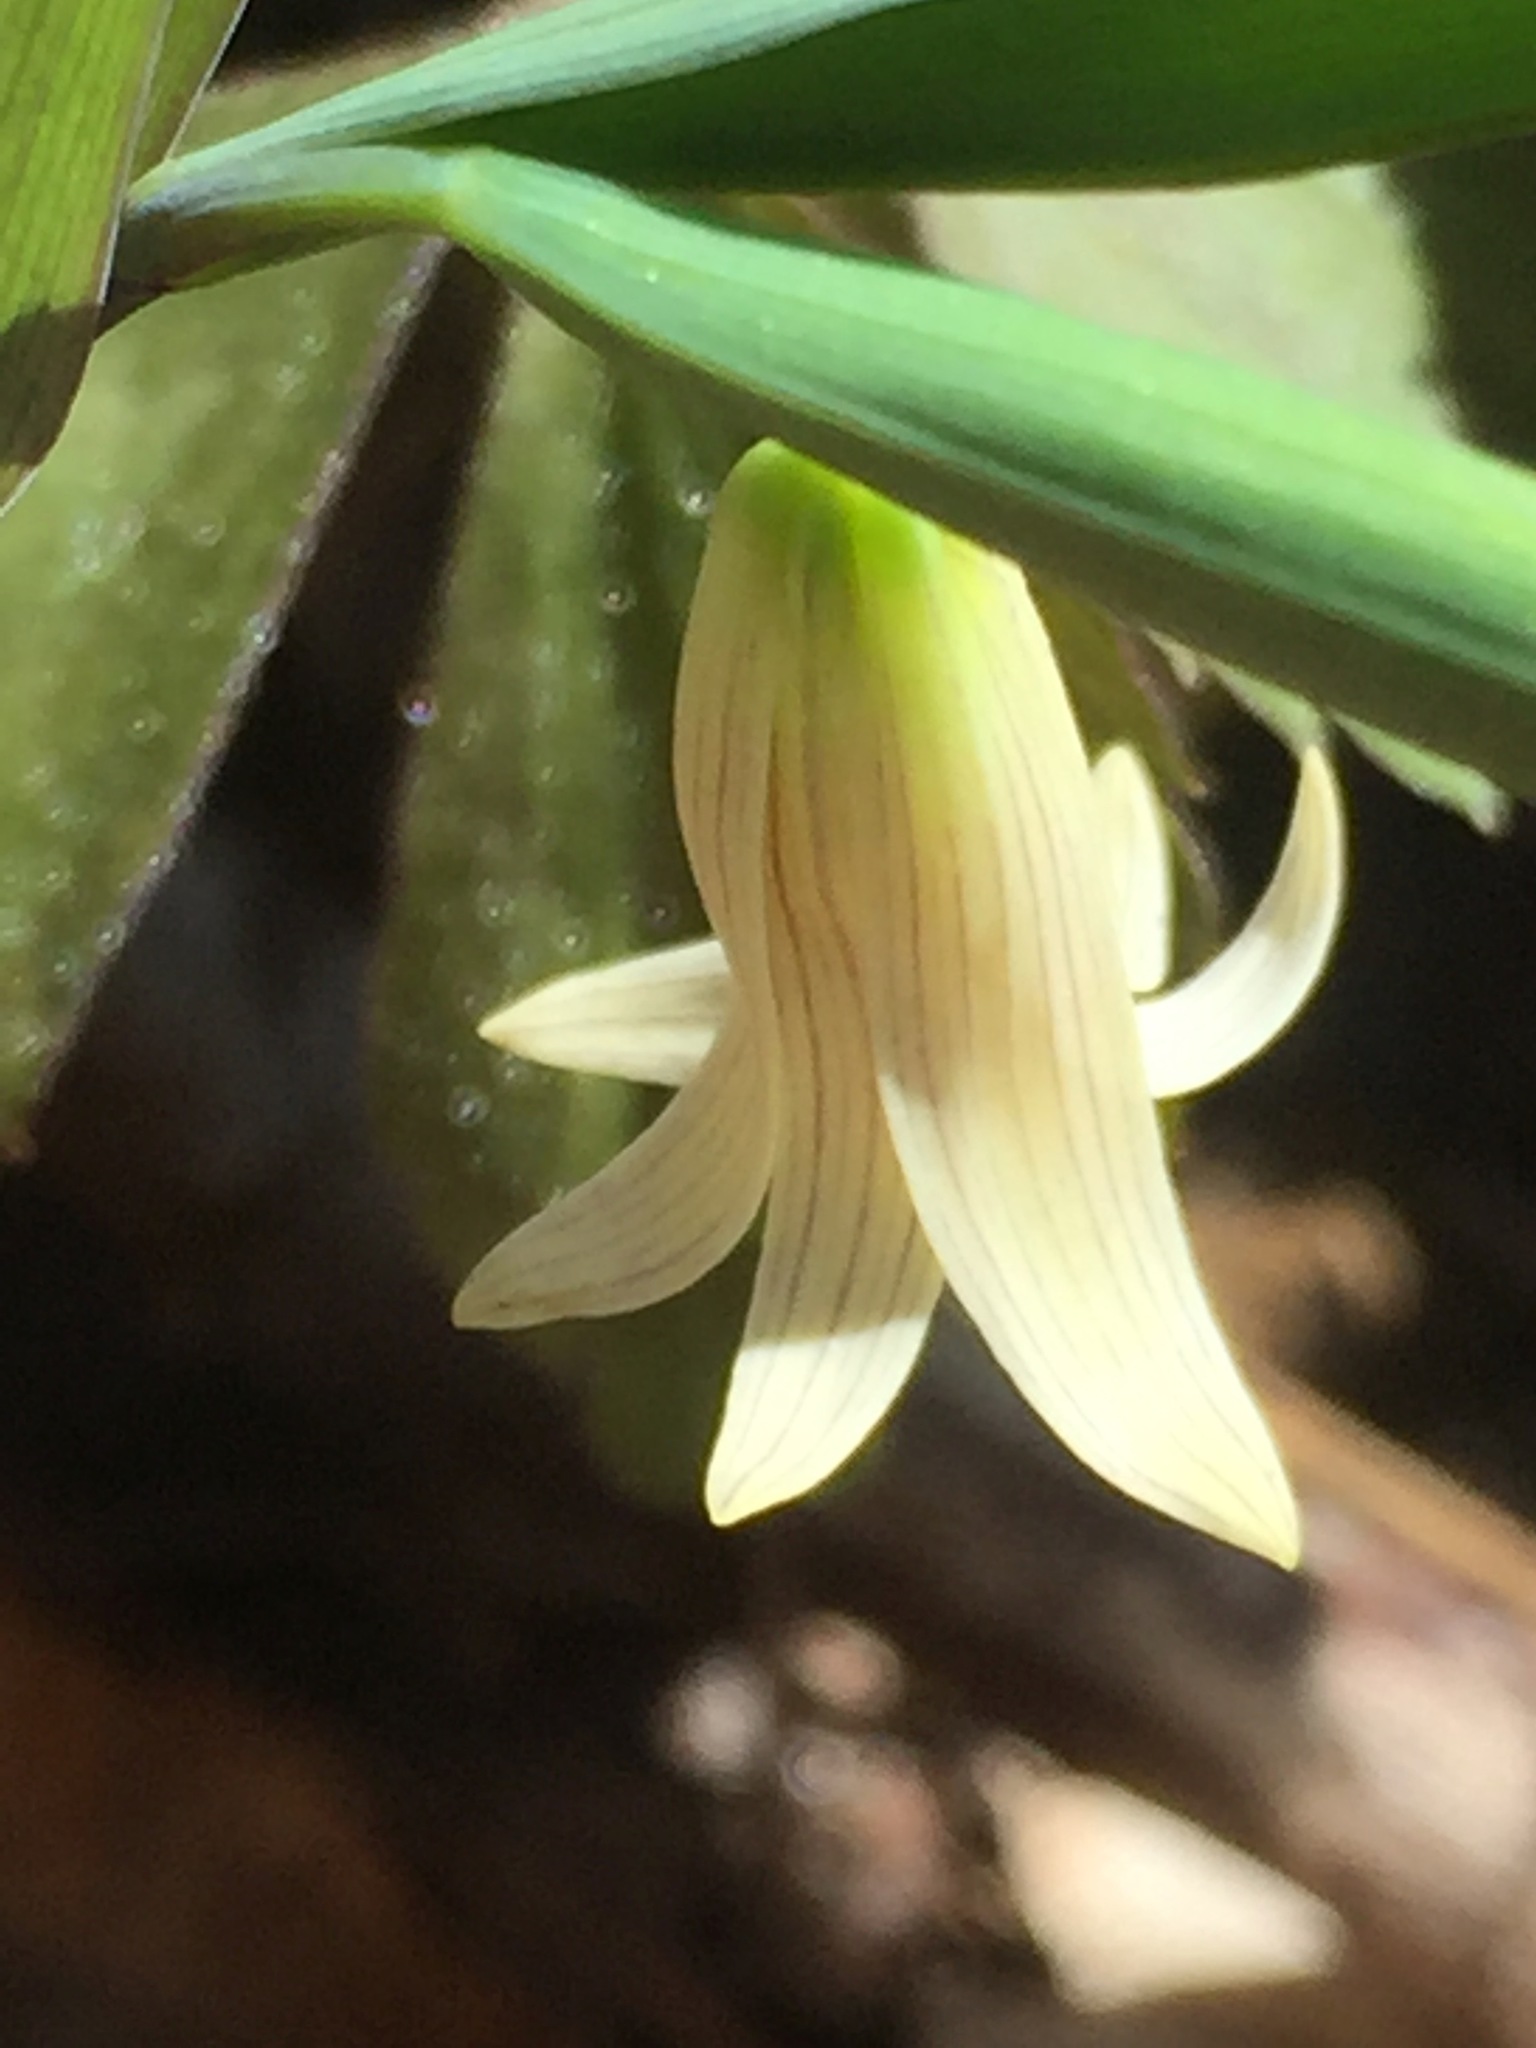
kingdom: Plantae
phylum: Tracheophyta
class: Liliopsida
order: Liliales
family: Colchicaceae
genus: Uvularia
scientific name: Uvularia sessilifolia
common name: Straw-lily
